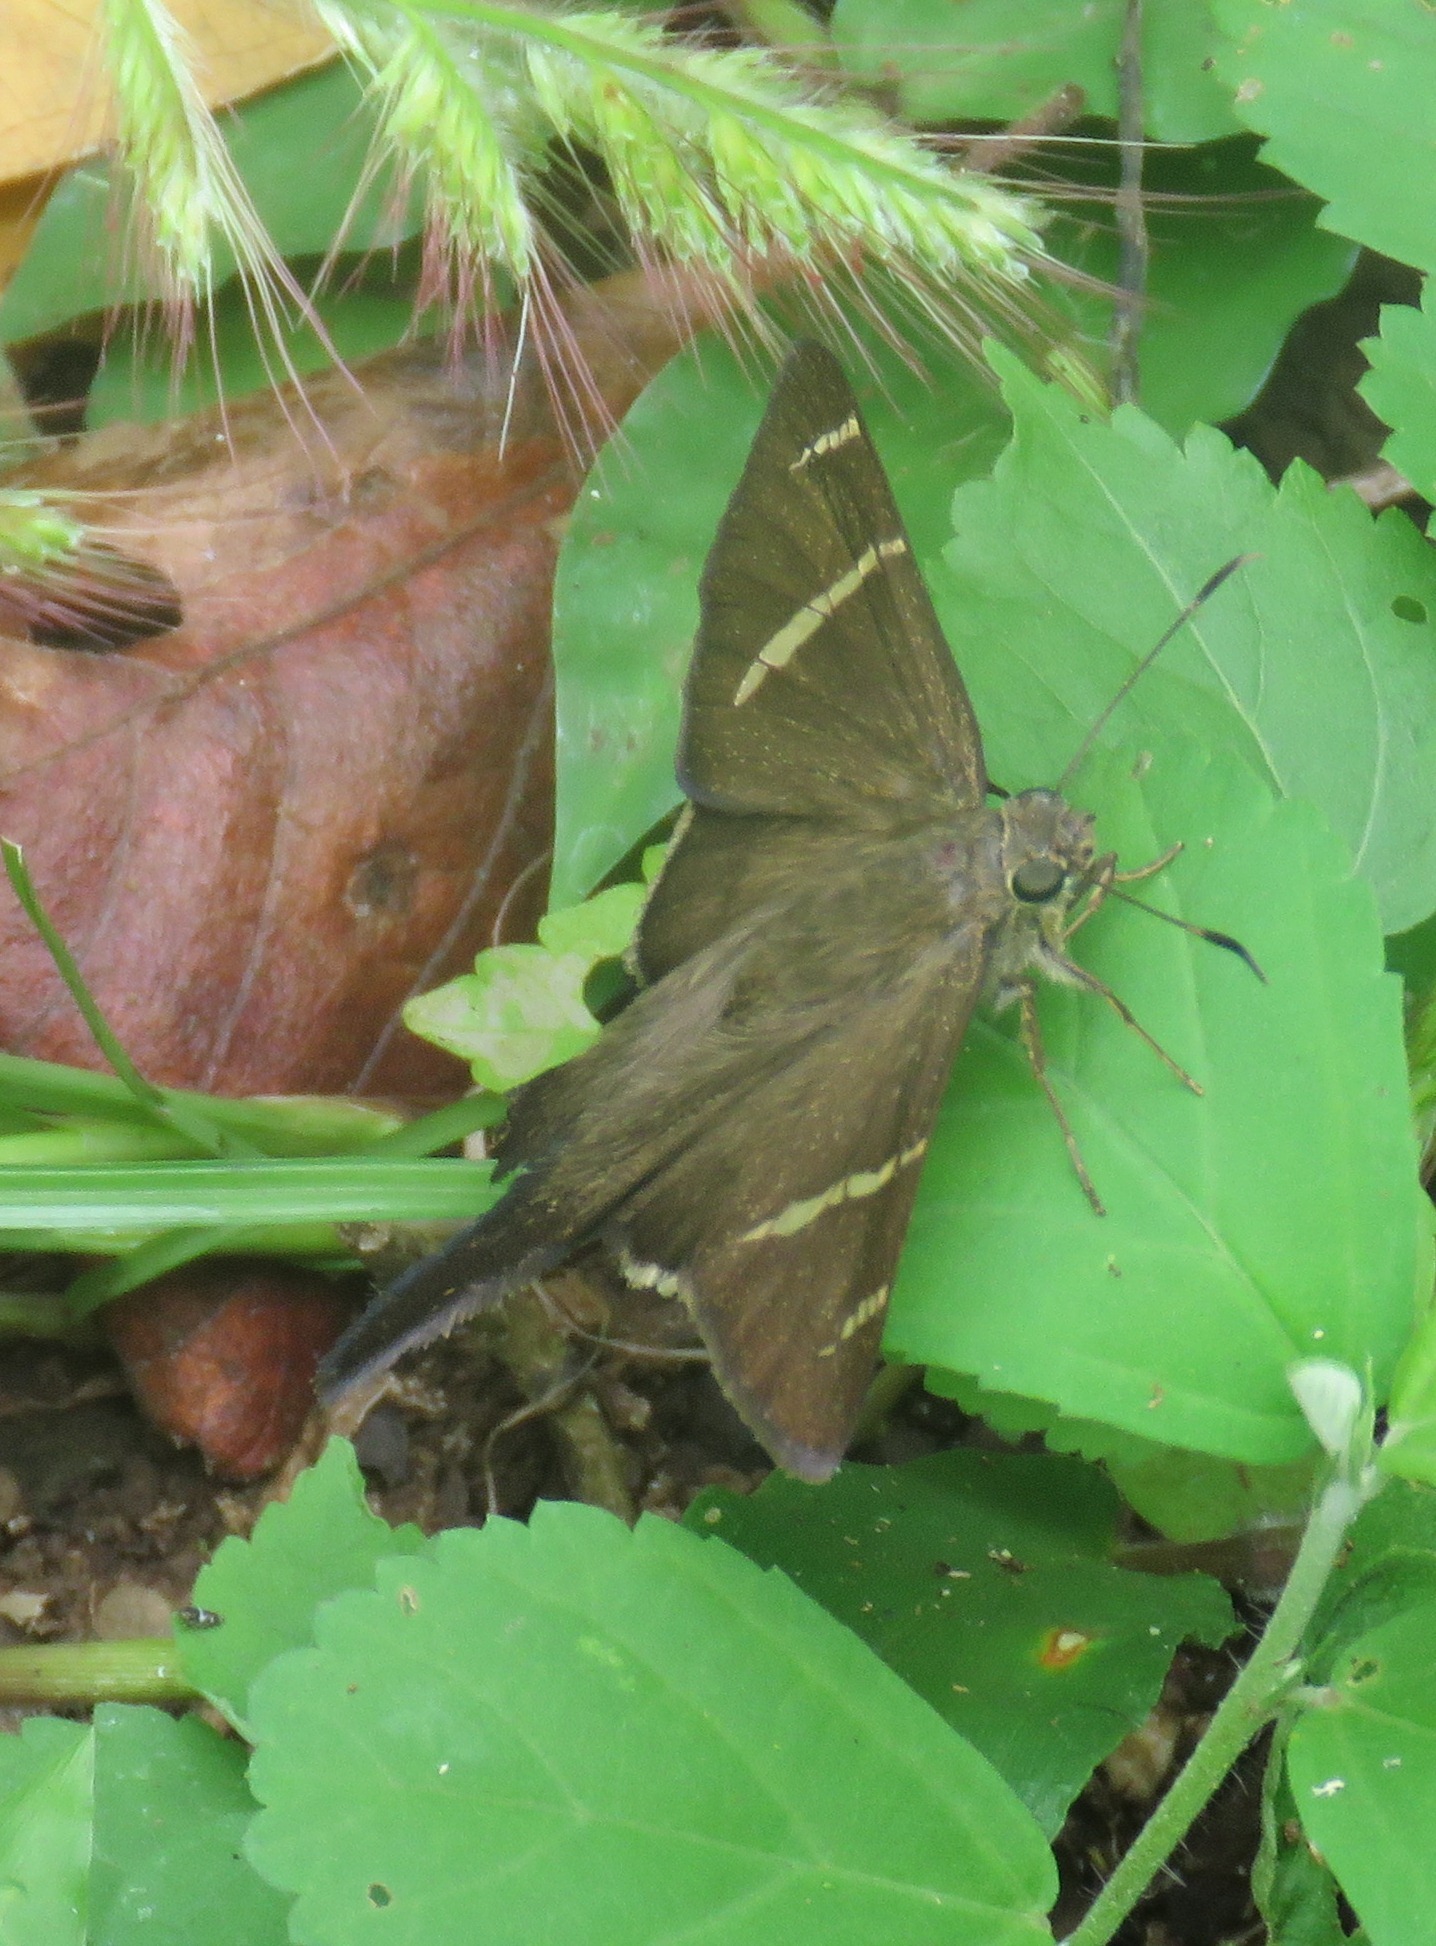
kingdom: Animalia
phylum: Arthropoda
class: Insecta
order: Lepidoptera
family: Hesperiidae
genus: Urbanus
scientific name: Urbanus tanna
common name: Tanna longtail
